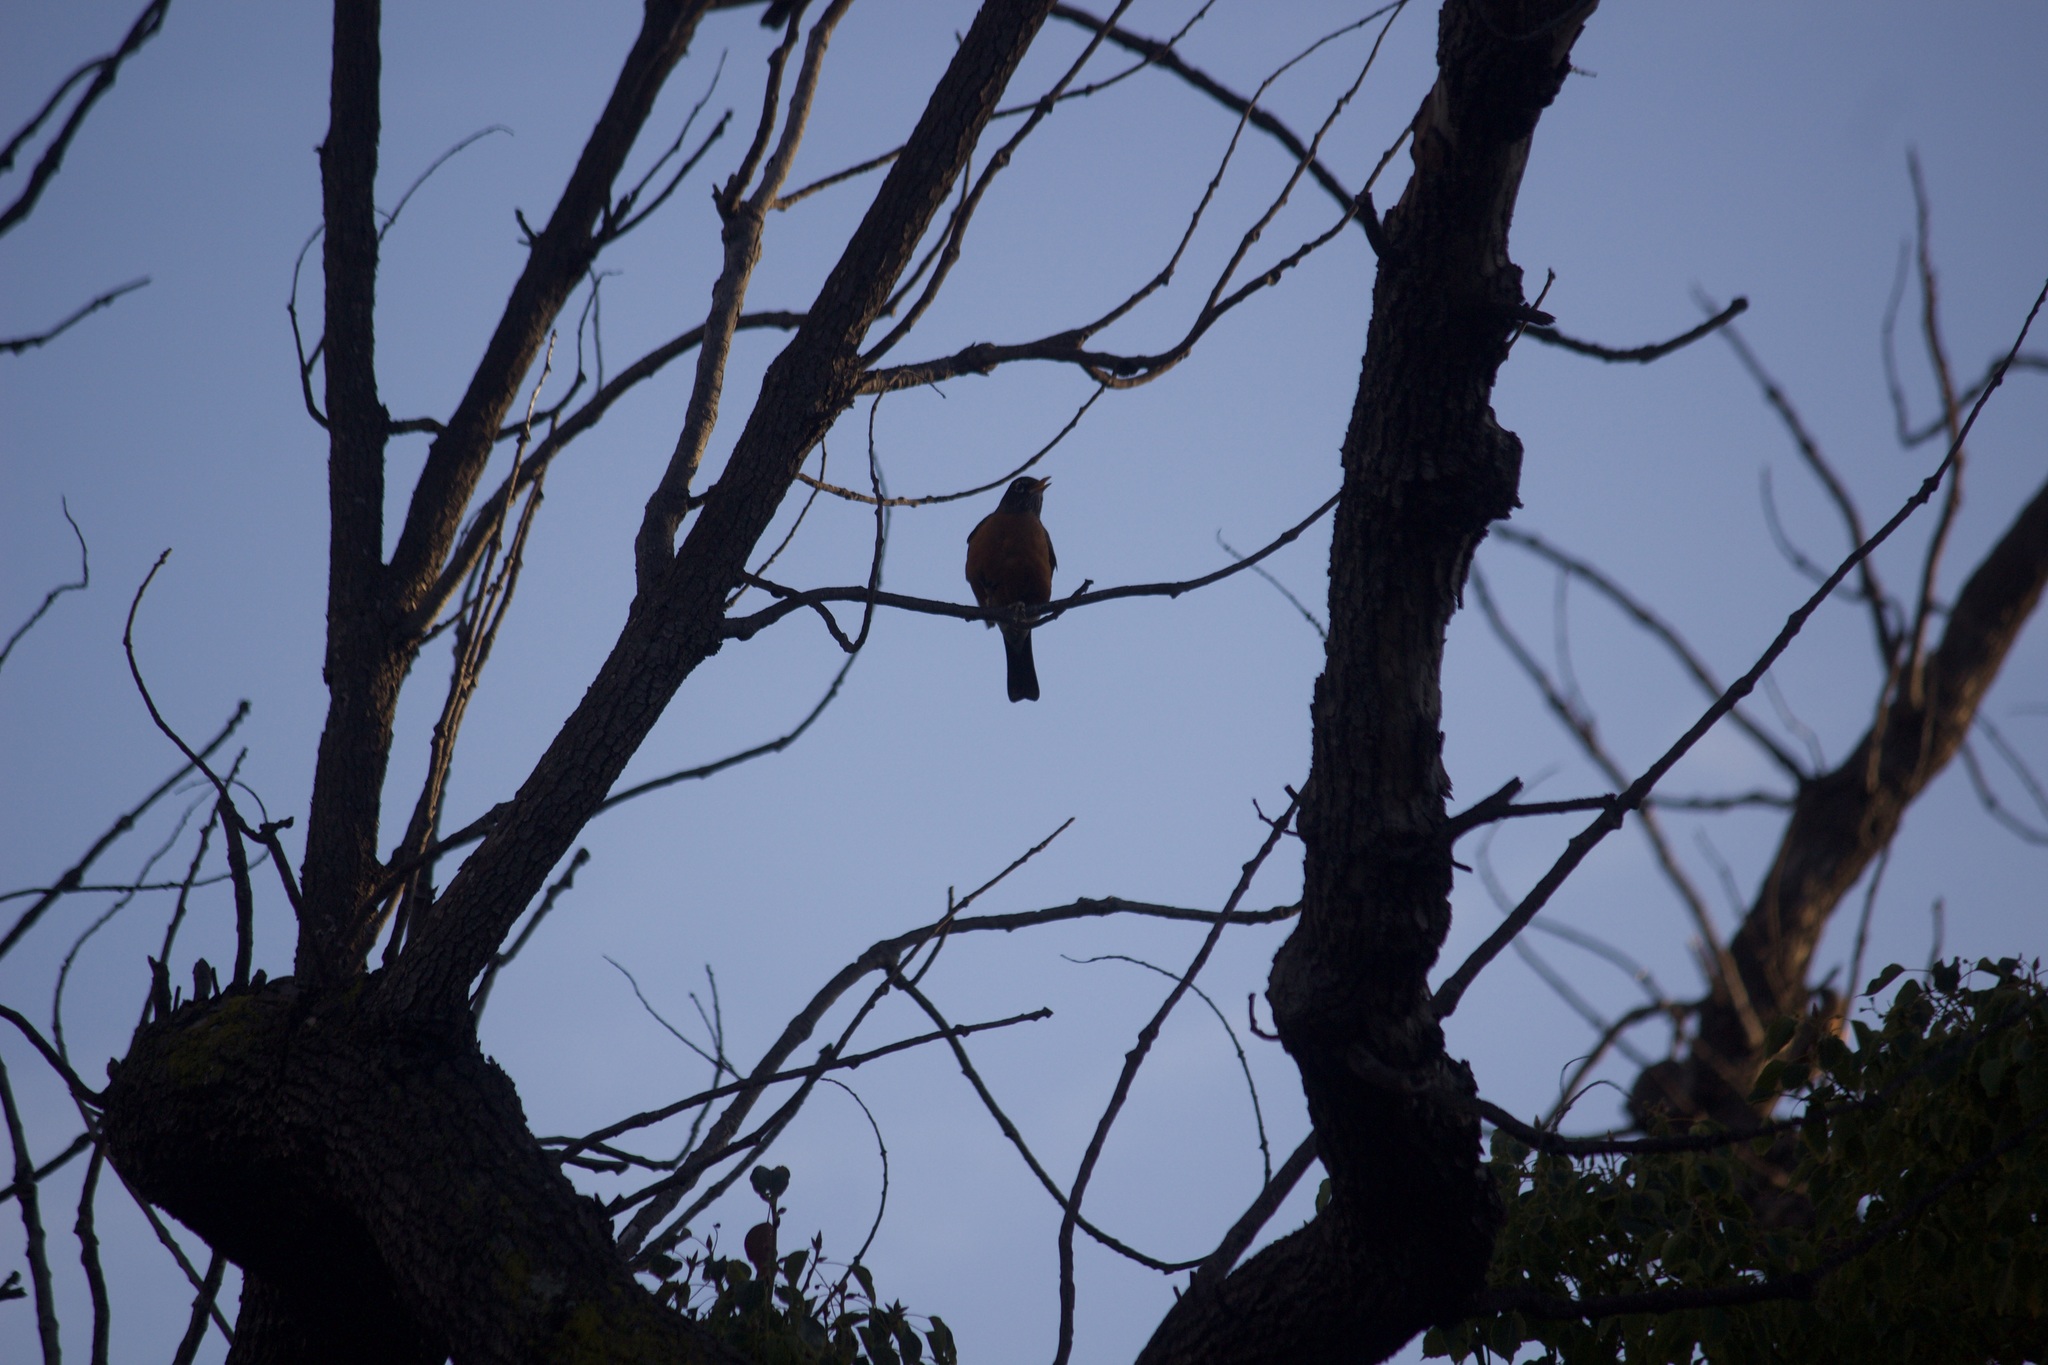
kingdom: Animalia
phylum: Chordata
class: Aves
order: Passeriformes
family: Turdidae
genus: Turdus
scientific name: Turdus migratorius
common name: American robin
